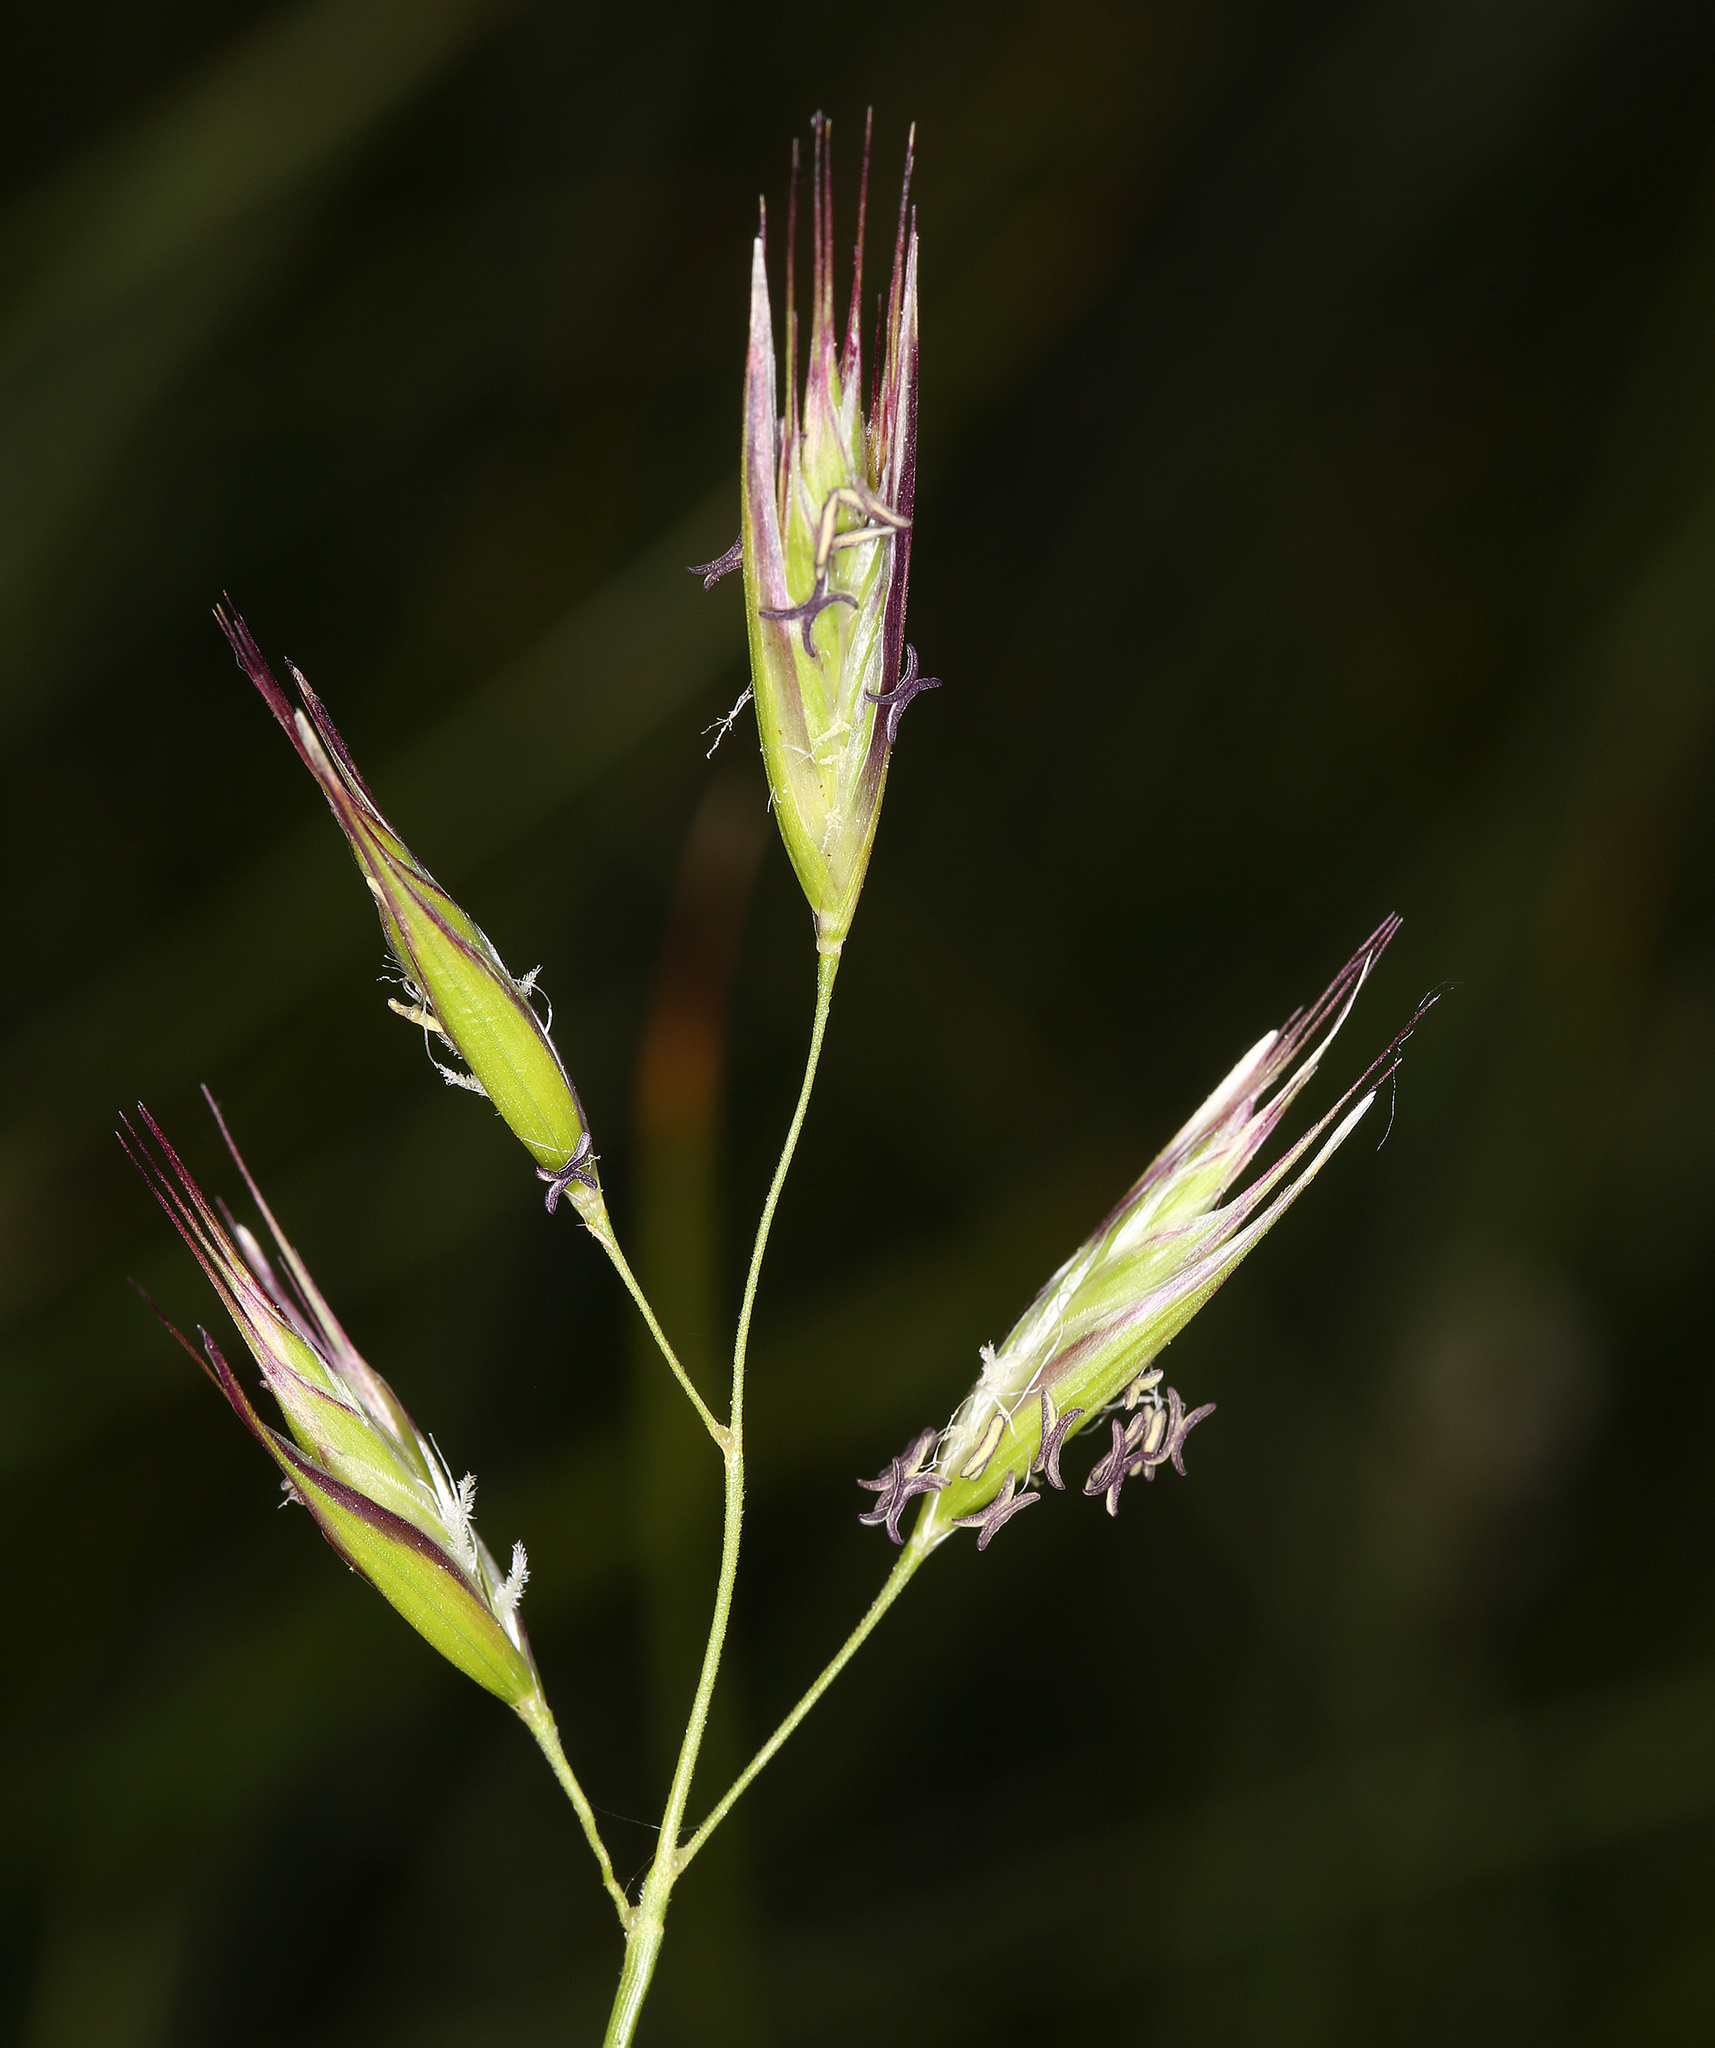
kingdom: Plantae
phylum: Tracheophyta
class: Liliopsida
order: Poales
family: Poaceae
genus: Danthonia
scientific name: Danthonia californica
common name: California oat grass
